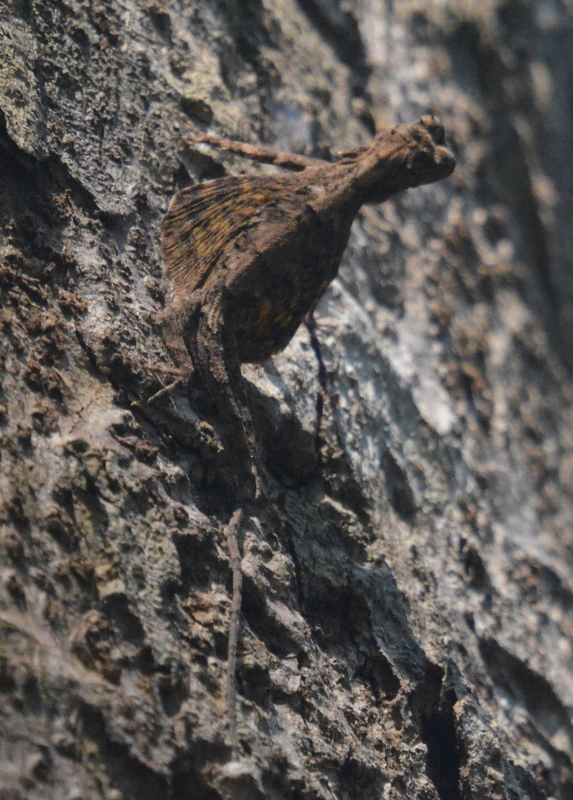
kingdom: Animalia
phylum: Chordata
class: Squamata
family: Agamidae
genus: Draco
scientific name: Draco maculatus
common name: Spotted flying dragon
